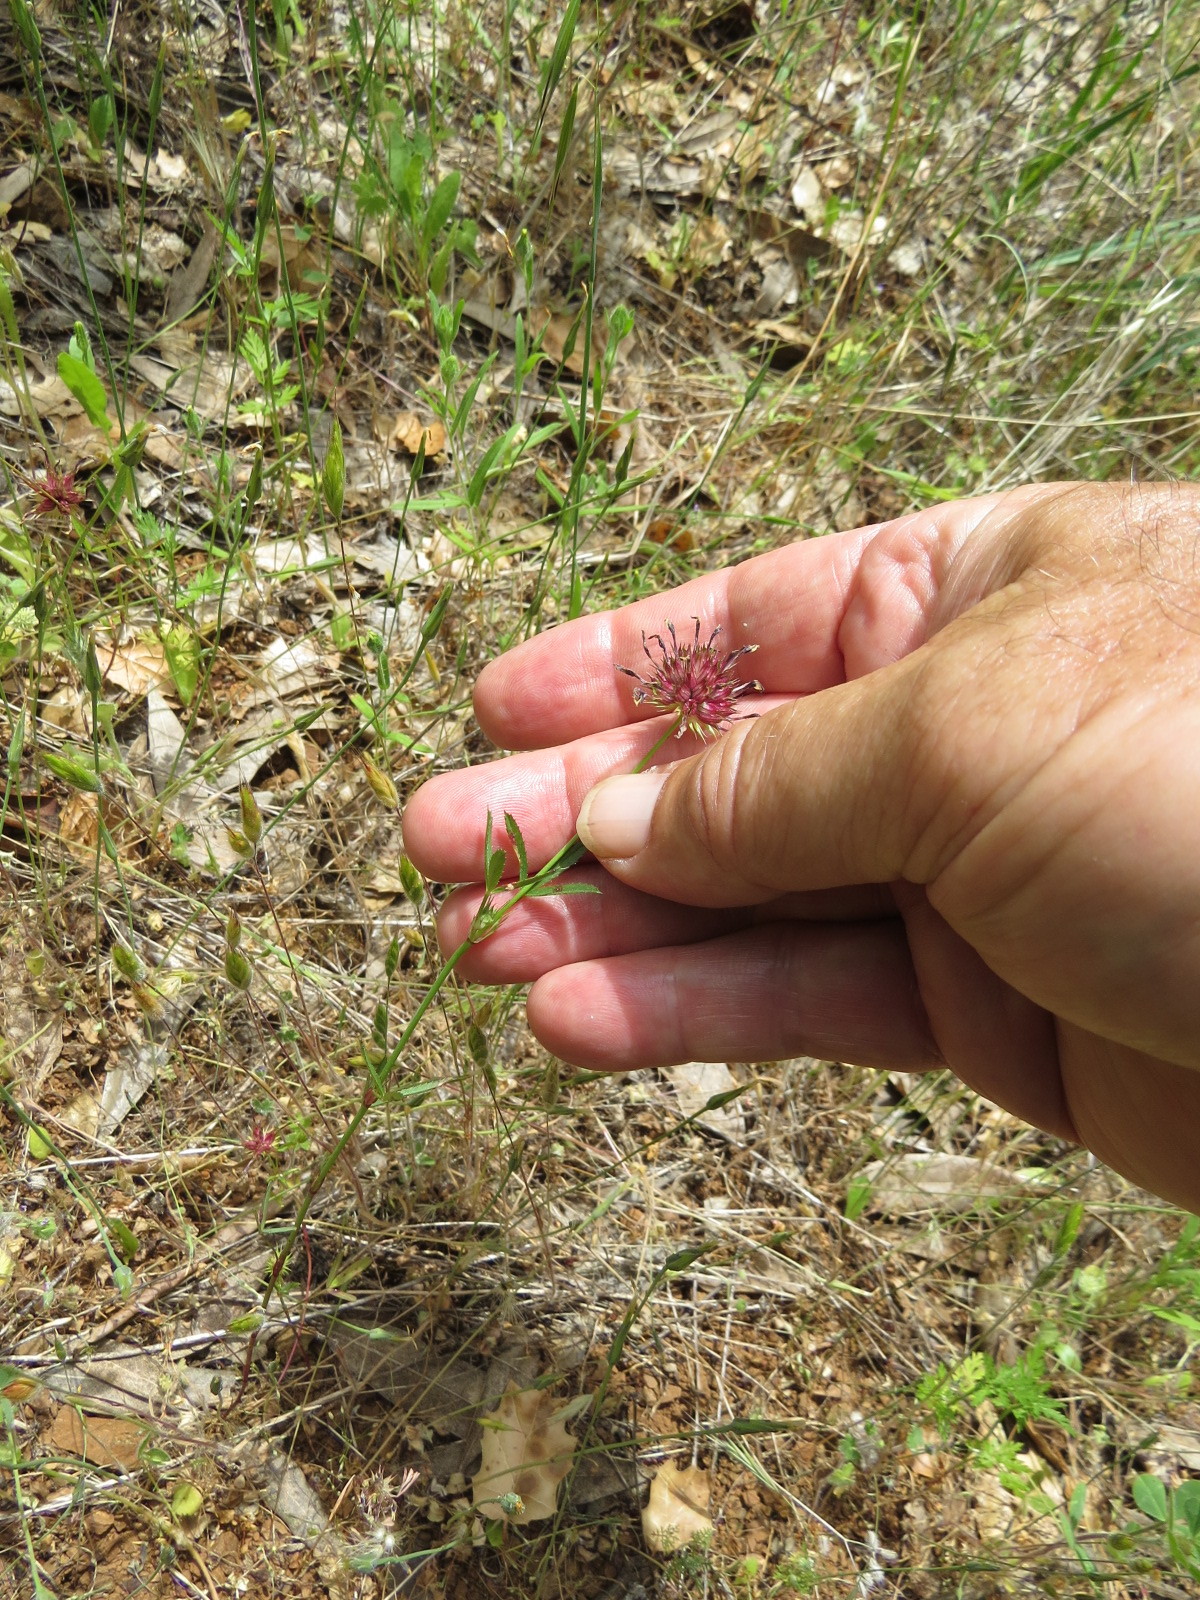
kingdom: Plantae
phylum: Tracheophyta
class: Magnoliopsida
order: Fabales
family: Fabaceae
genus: Trifolium
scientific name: Trifolium willdenovii
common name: Tomcat clover
